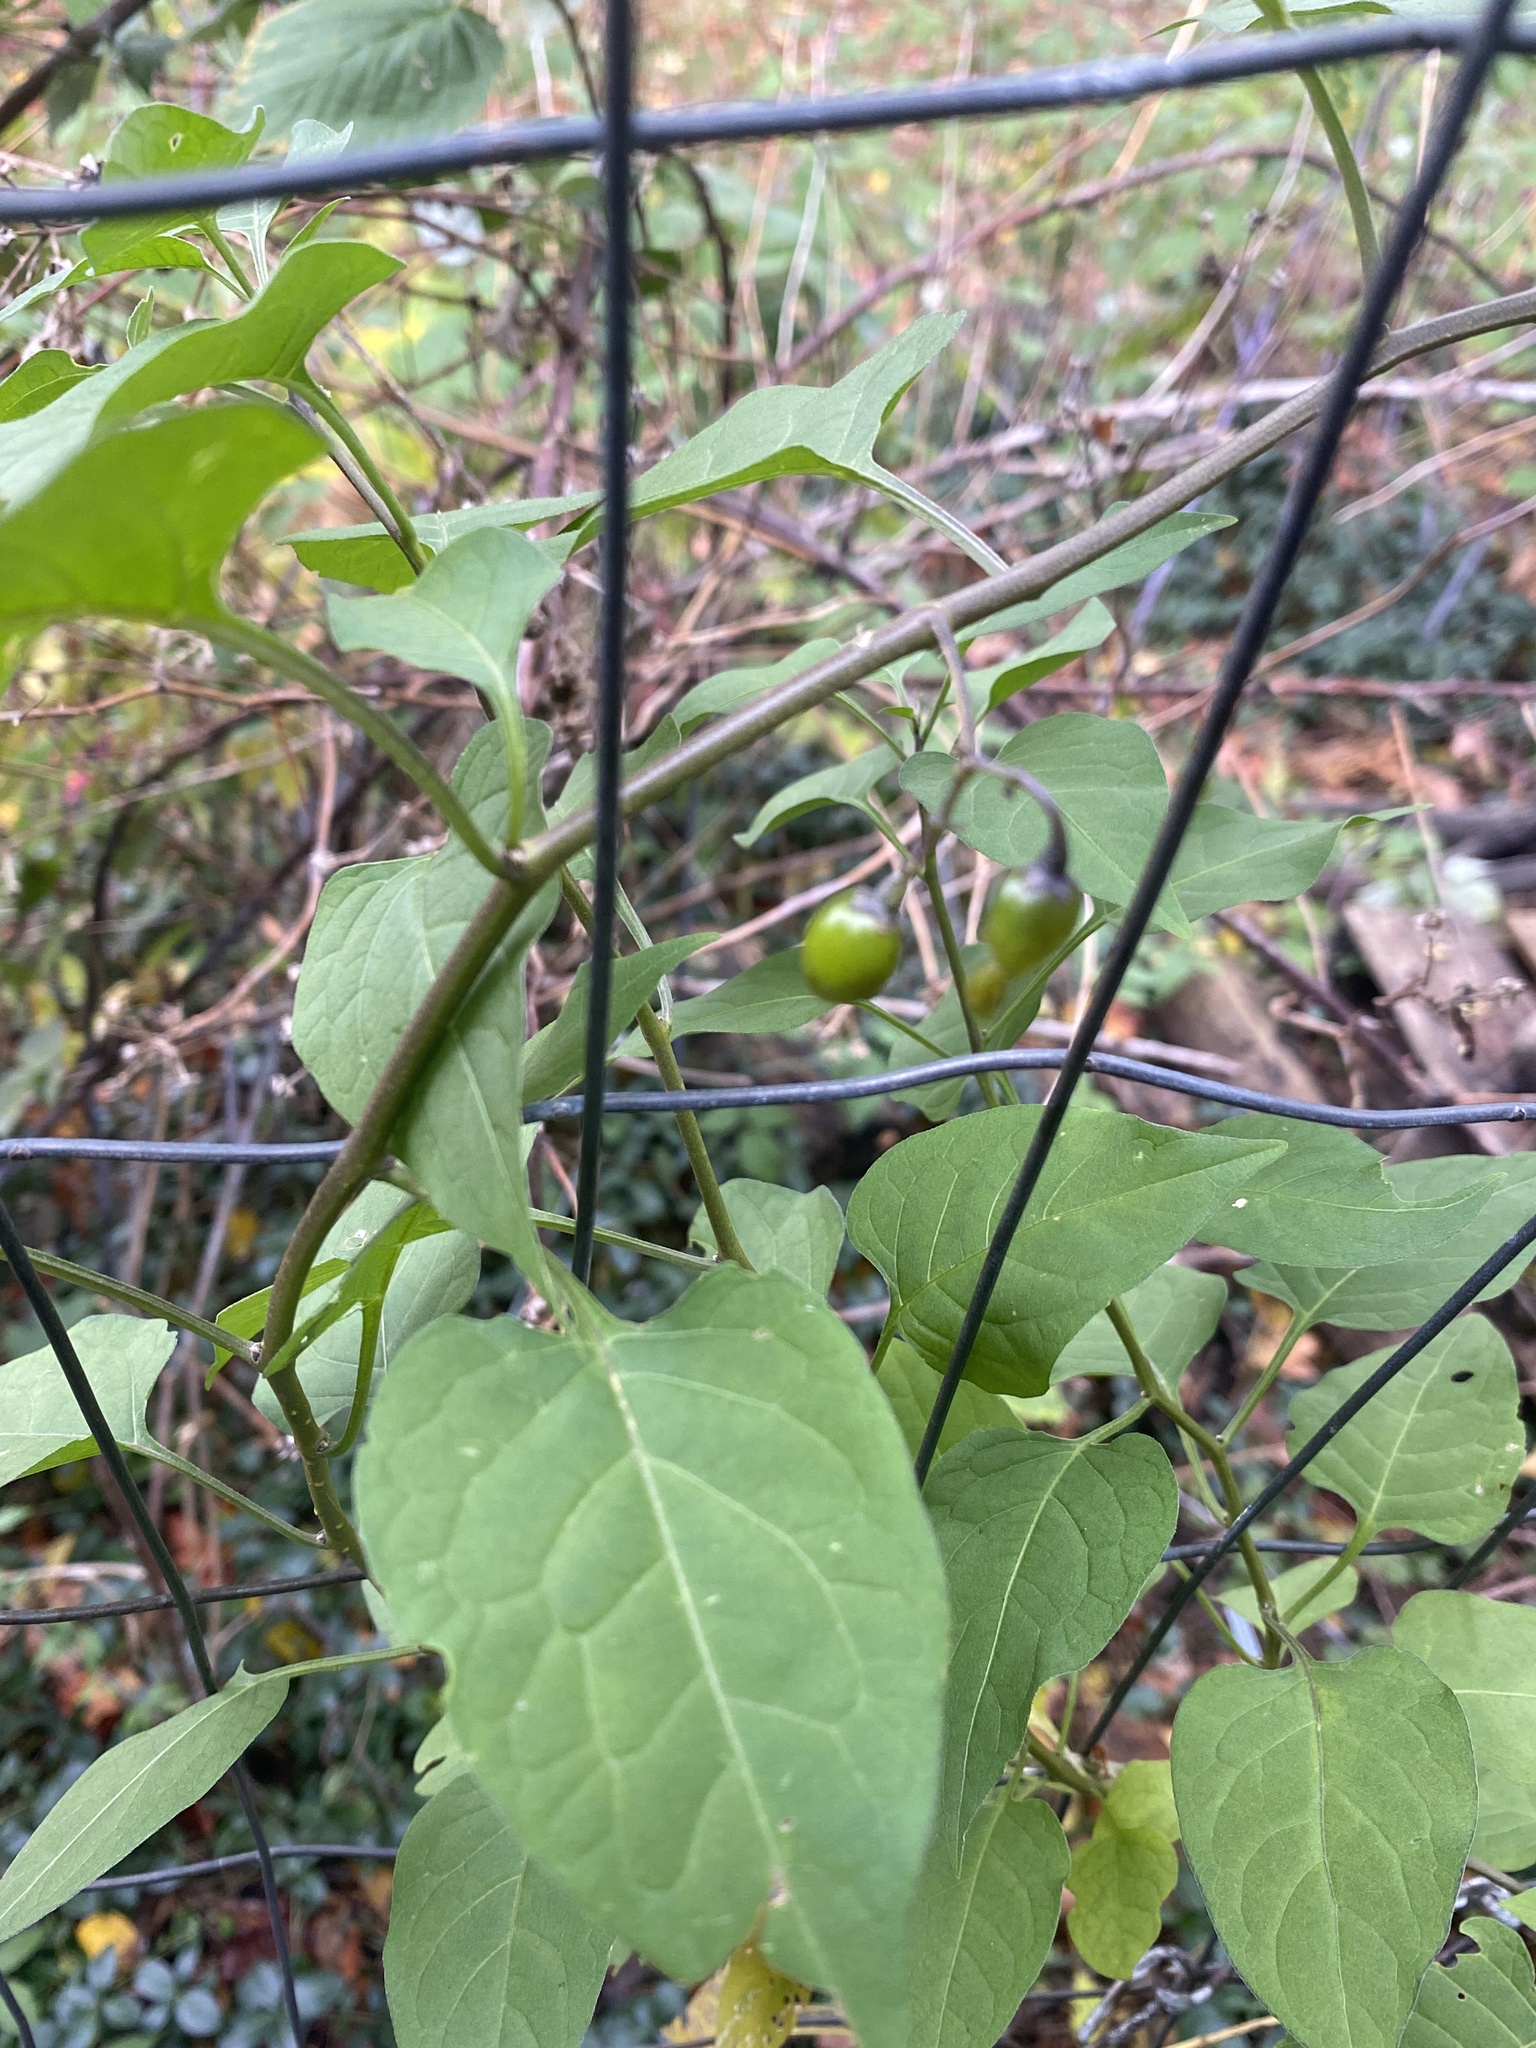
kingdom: Plantae
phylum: Tracheophyta
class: Magnoliopsida
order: Solanales
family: Solanaceae
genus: Solanum
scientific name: Solanum dulcamara
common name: Climbing nightshade
